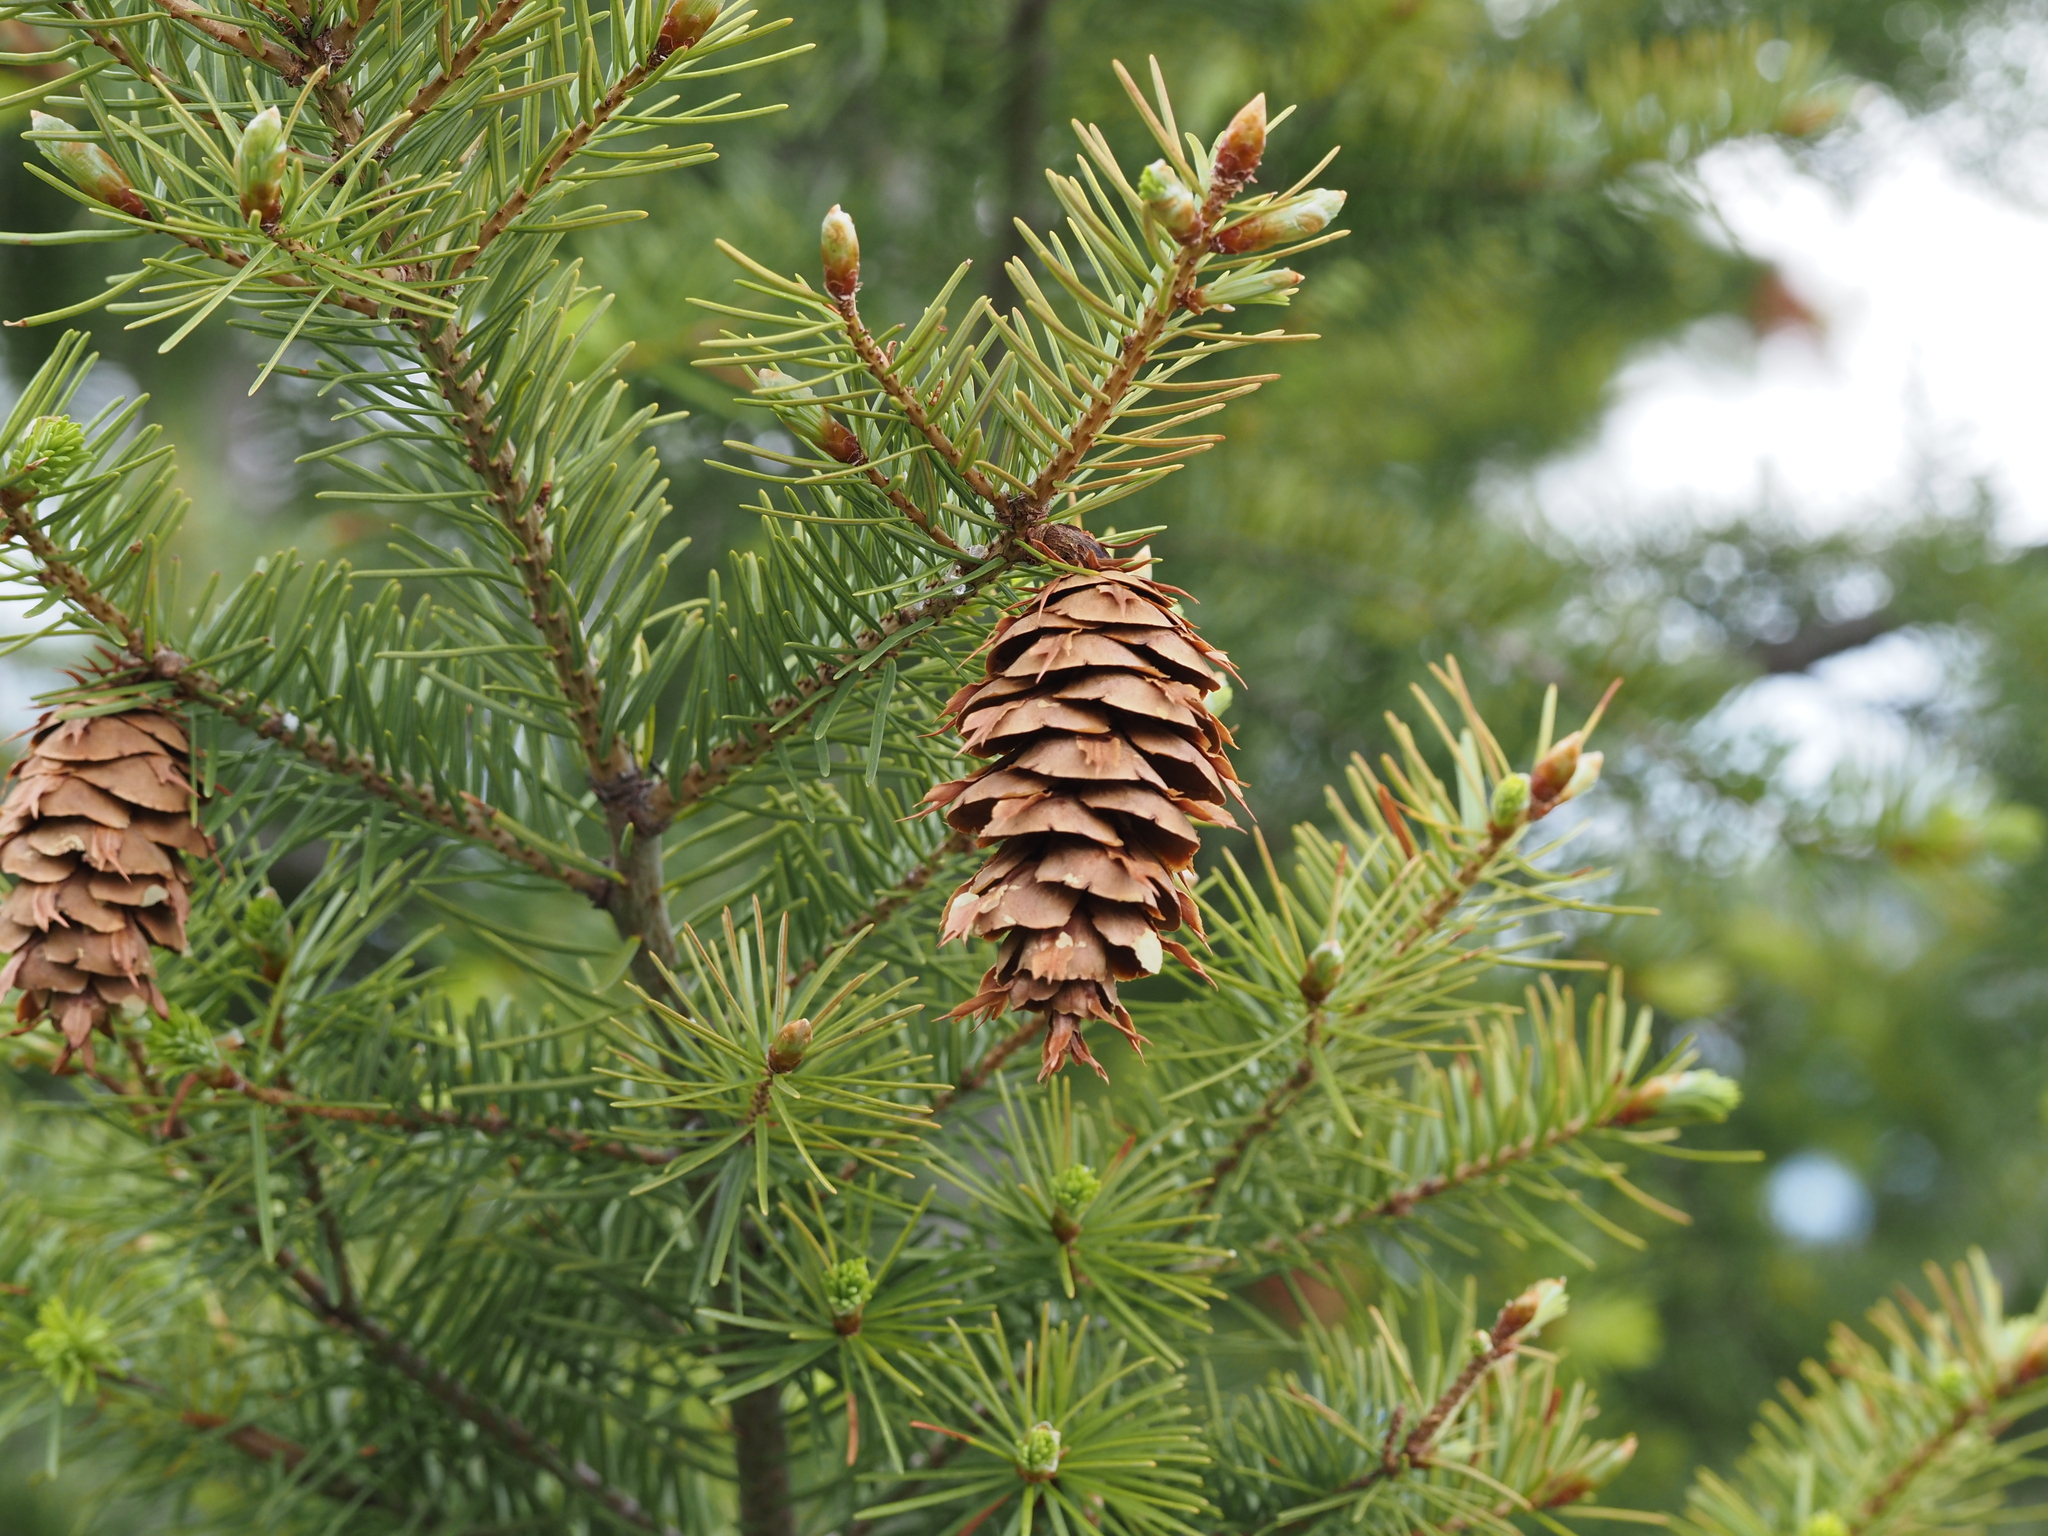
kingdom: Plantae
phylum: Tracheophyta
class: Pinopsida
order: Pinales
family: Pinaceae
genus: Pseudotsuga
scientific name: Pseudotsuga menziesii
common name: Douglas fir
